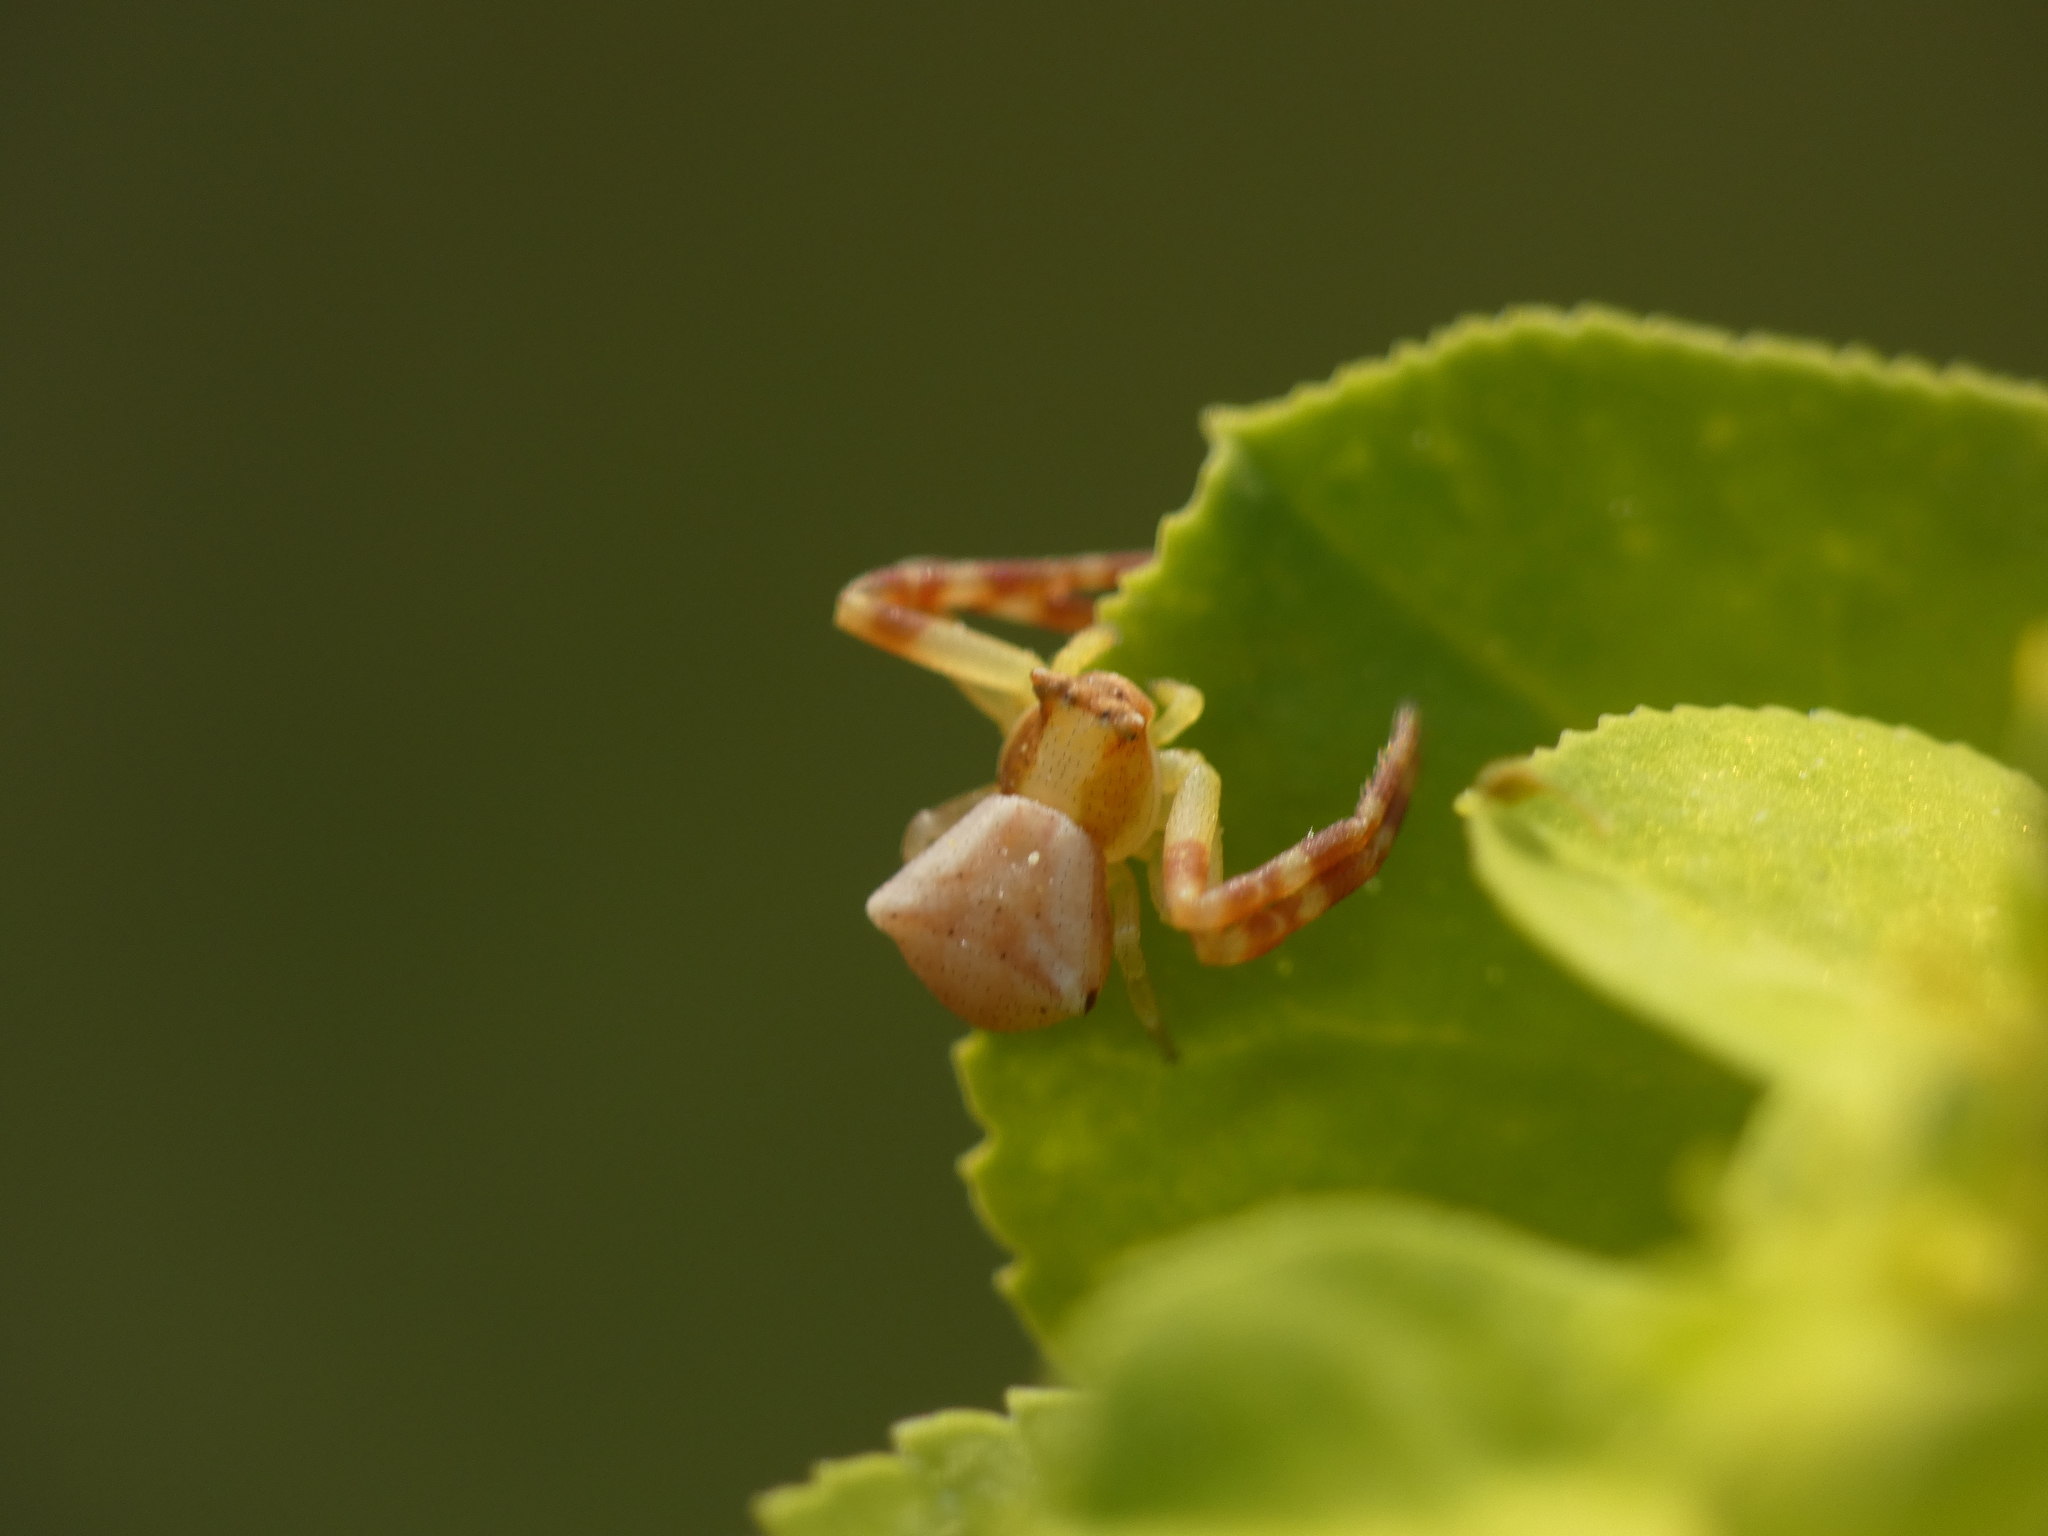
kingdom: Animalia
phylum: Arthropoda
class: Arachnida
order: Araneae
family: Thomisidae
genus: Thomisus
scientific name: Thomisus onustus
